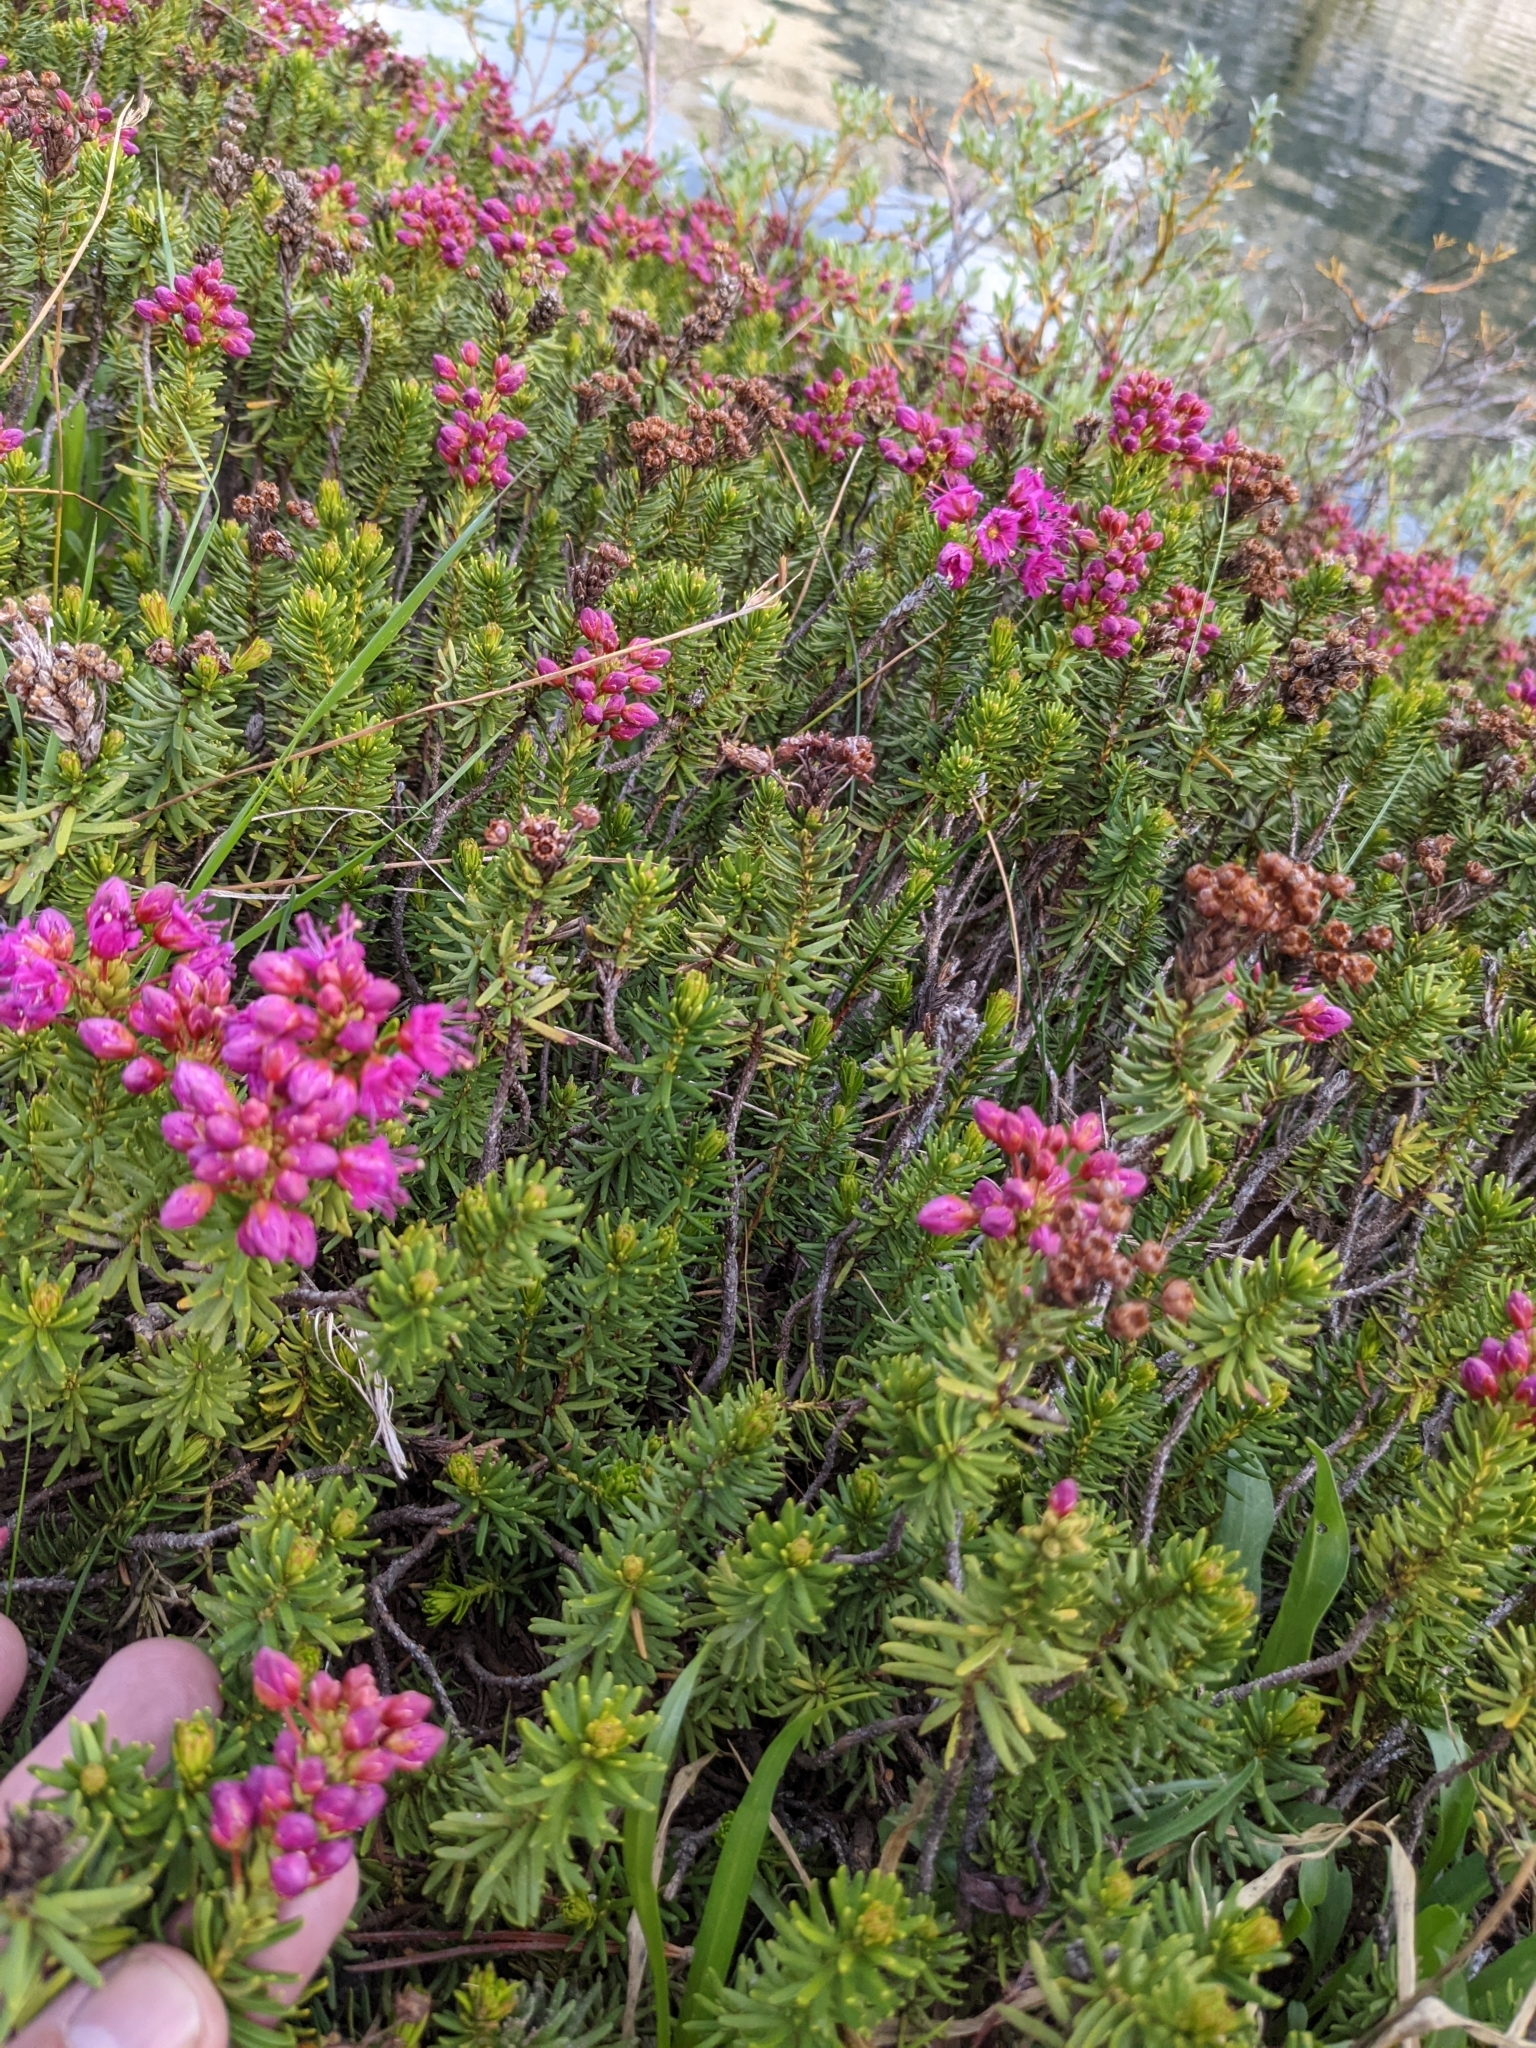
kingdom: Plantae
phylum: Tracheophyta
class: Magnoliopsida
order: Ericales
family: Ericaceae
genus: Phyllodoce
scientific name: Phyllodoce breweri
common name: Brewer's mountain-heather
